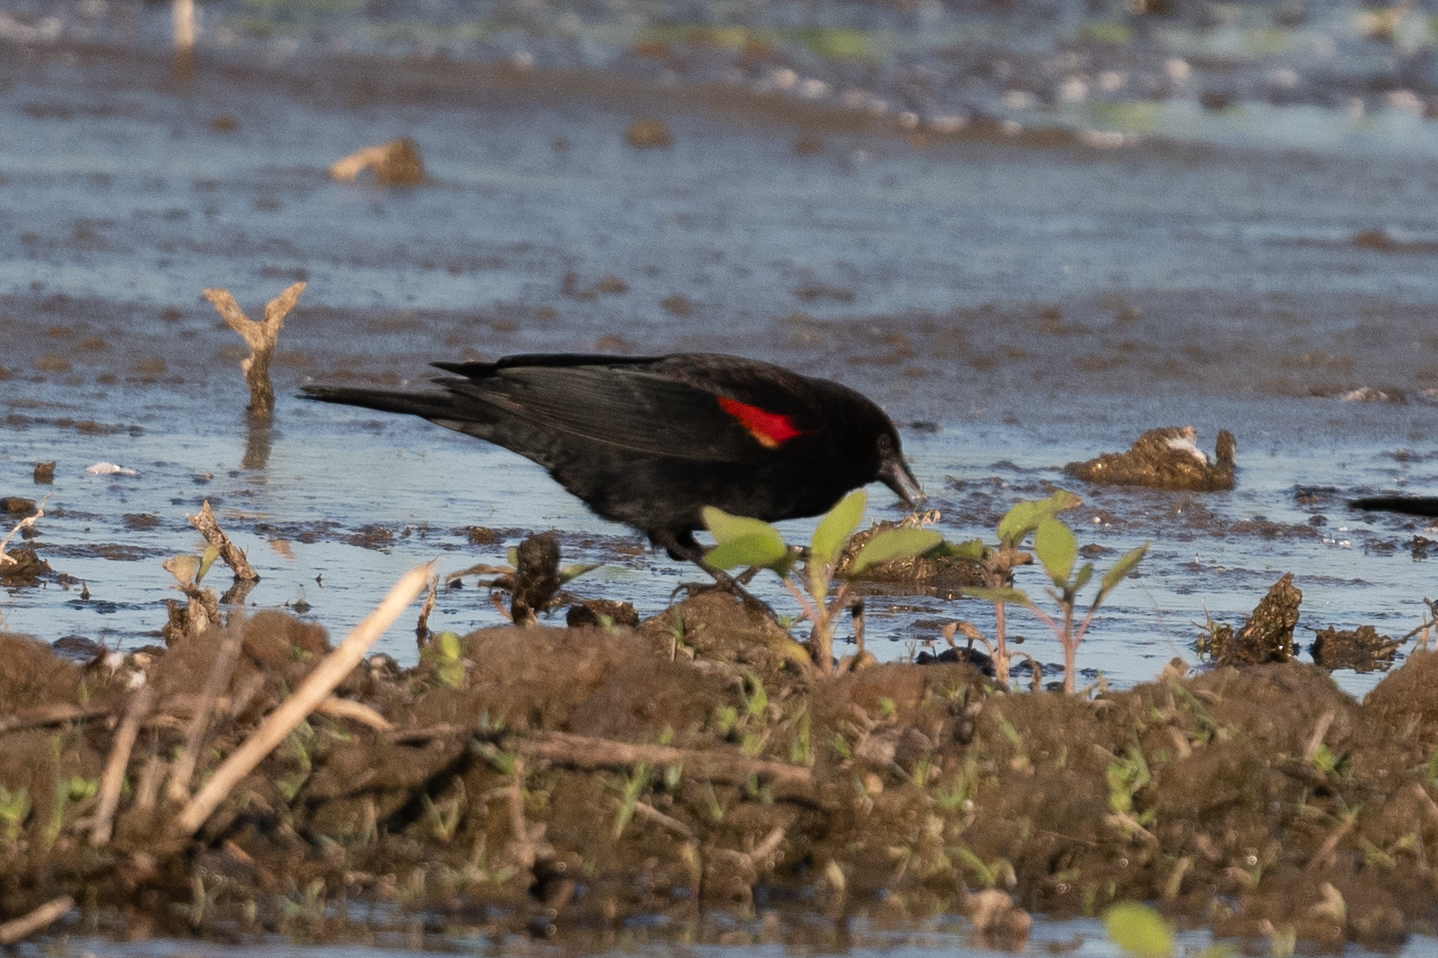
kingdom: Animalia
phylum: Chordata
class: Aves
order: Passeriformes
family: Icteridae
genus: Agelaius
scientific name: Agelaius phoeniceus
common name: Red-winged blackbird
